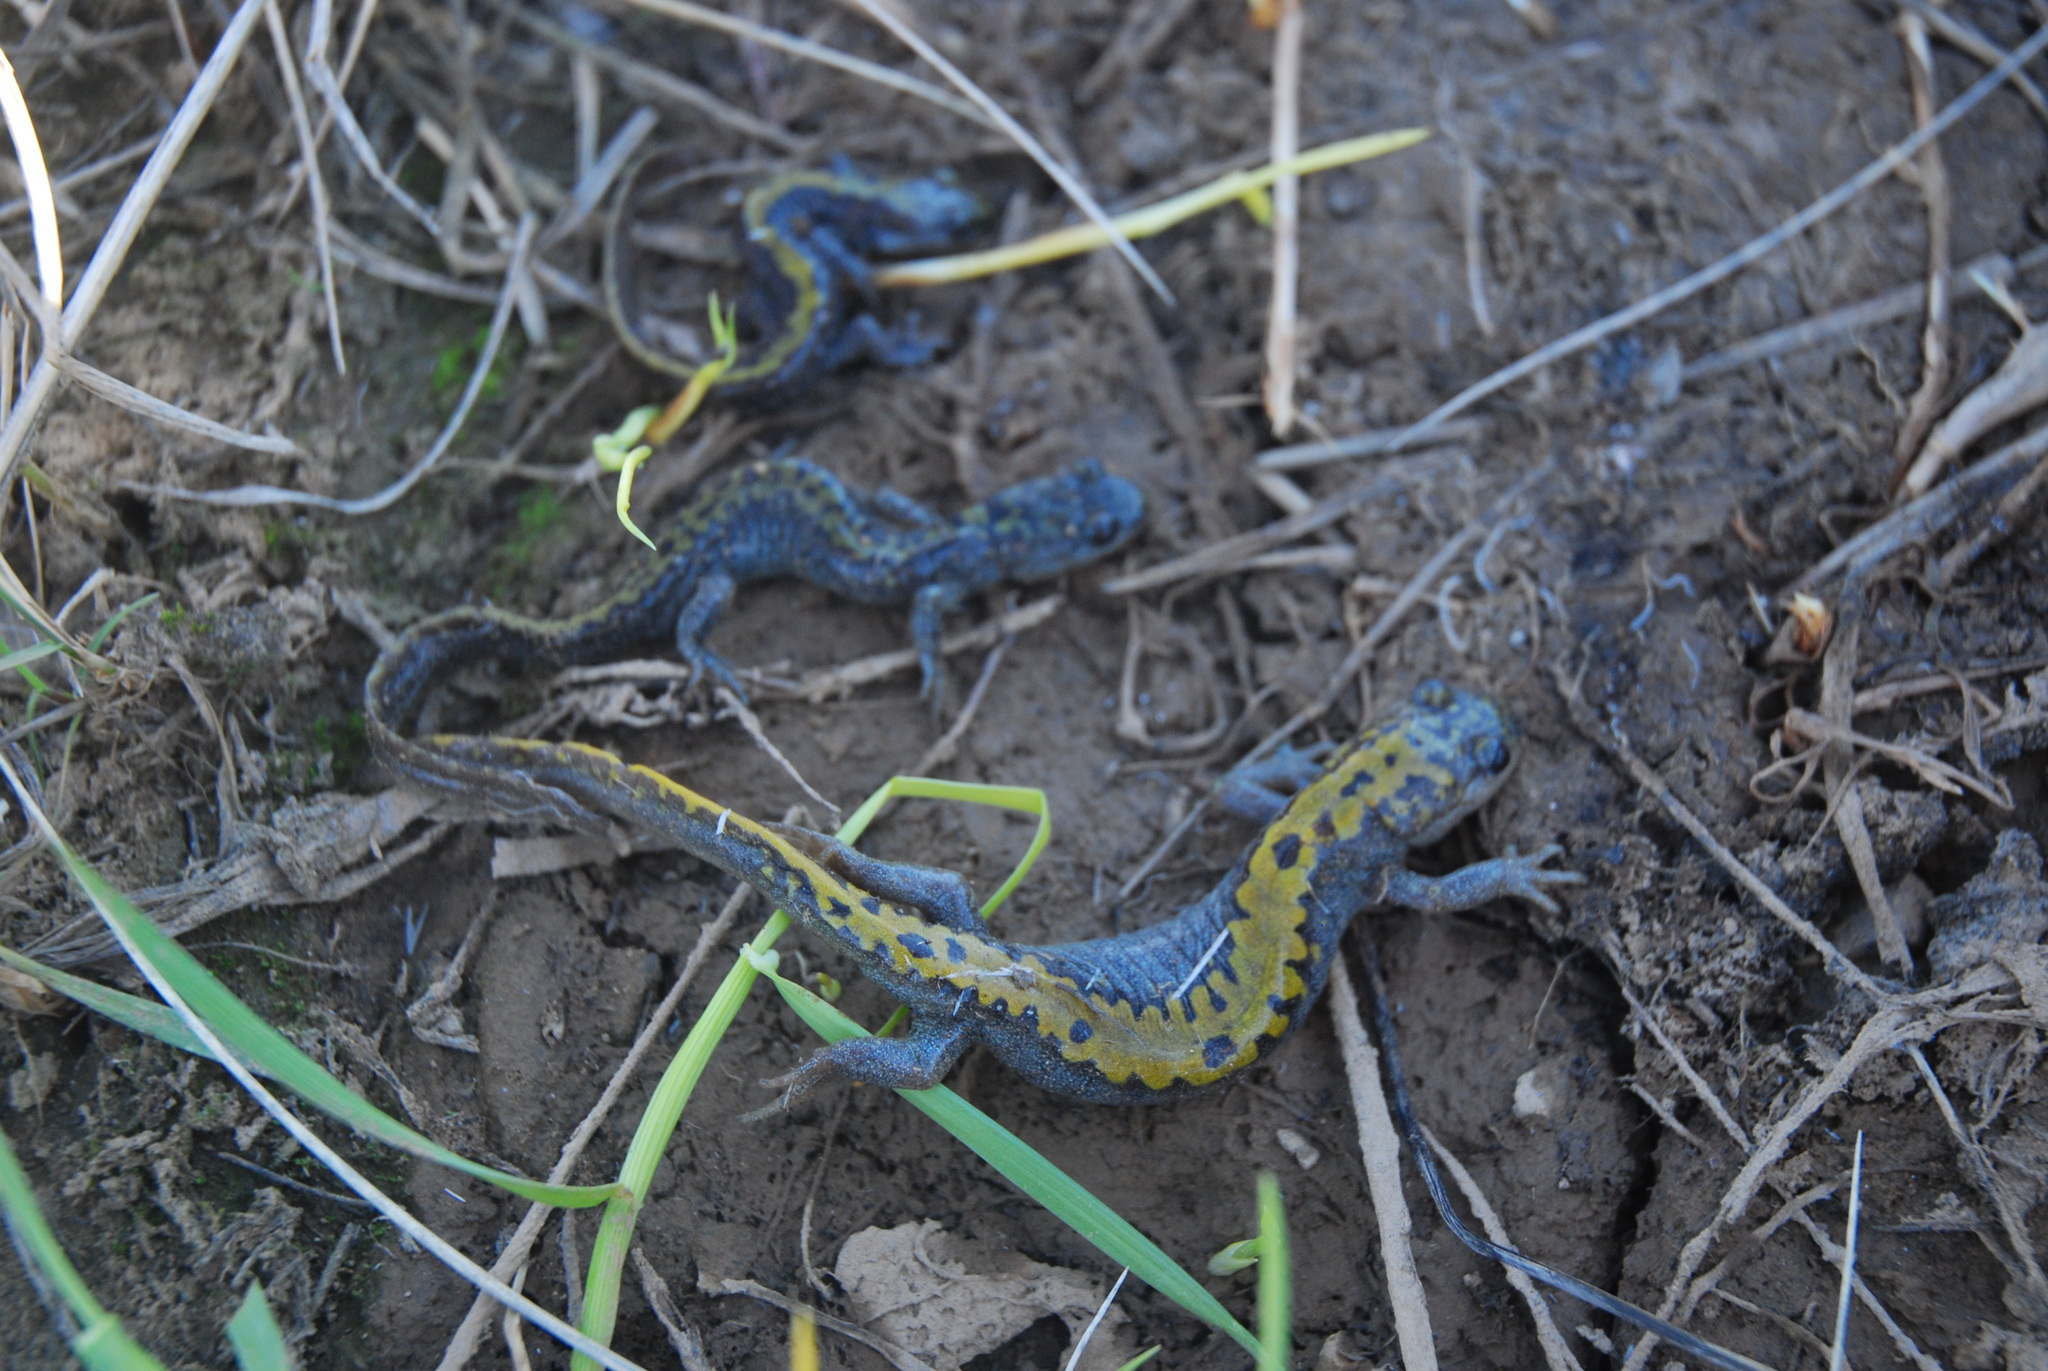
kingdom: Animalia
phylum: Chordata
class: Amphibia
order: Caudata
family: Ambystomatidae
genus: Ambystoma
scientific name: Ambystoma macrodactylum
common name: Long-toed salamander
